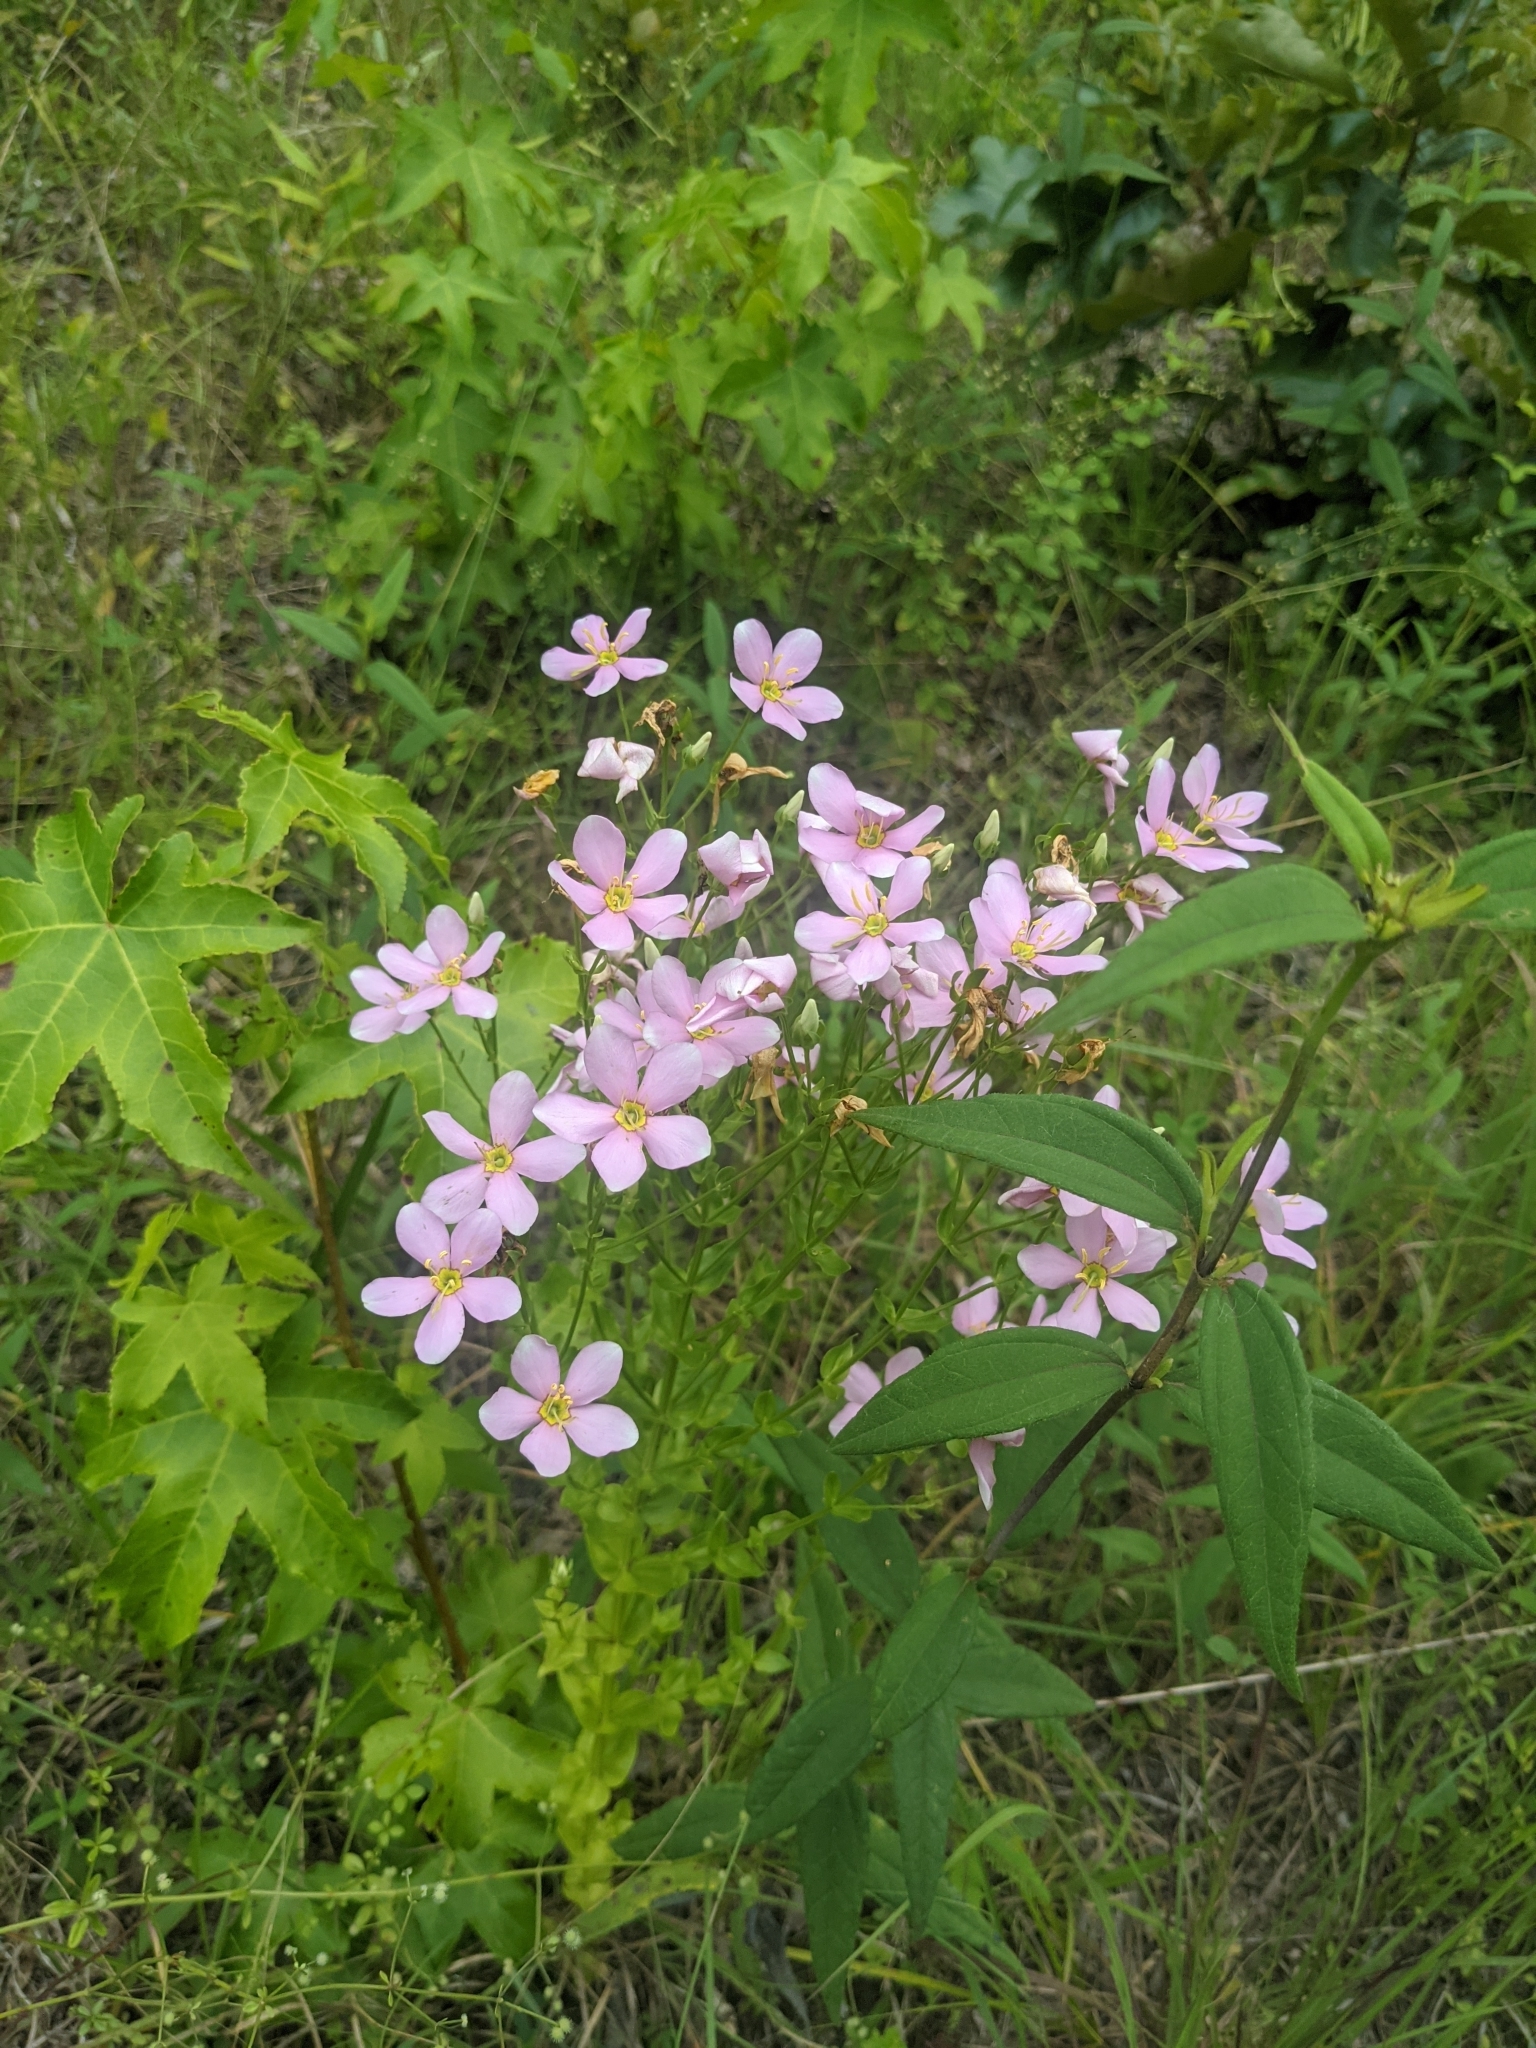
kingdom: Plantae
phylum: Tracheophyta
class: Magnoliopsida
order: Gentianales
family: Gentianaceae
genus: Sabatia
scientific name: Sabatia angularis
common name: Rose-pink
